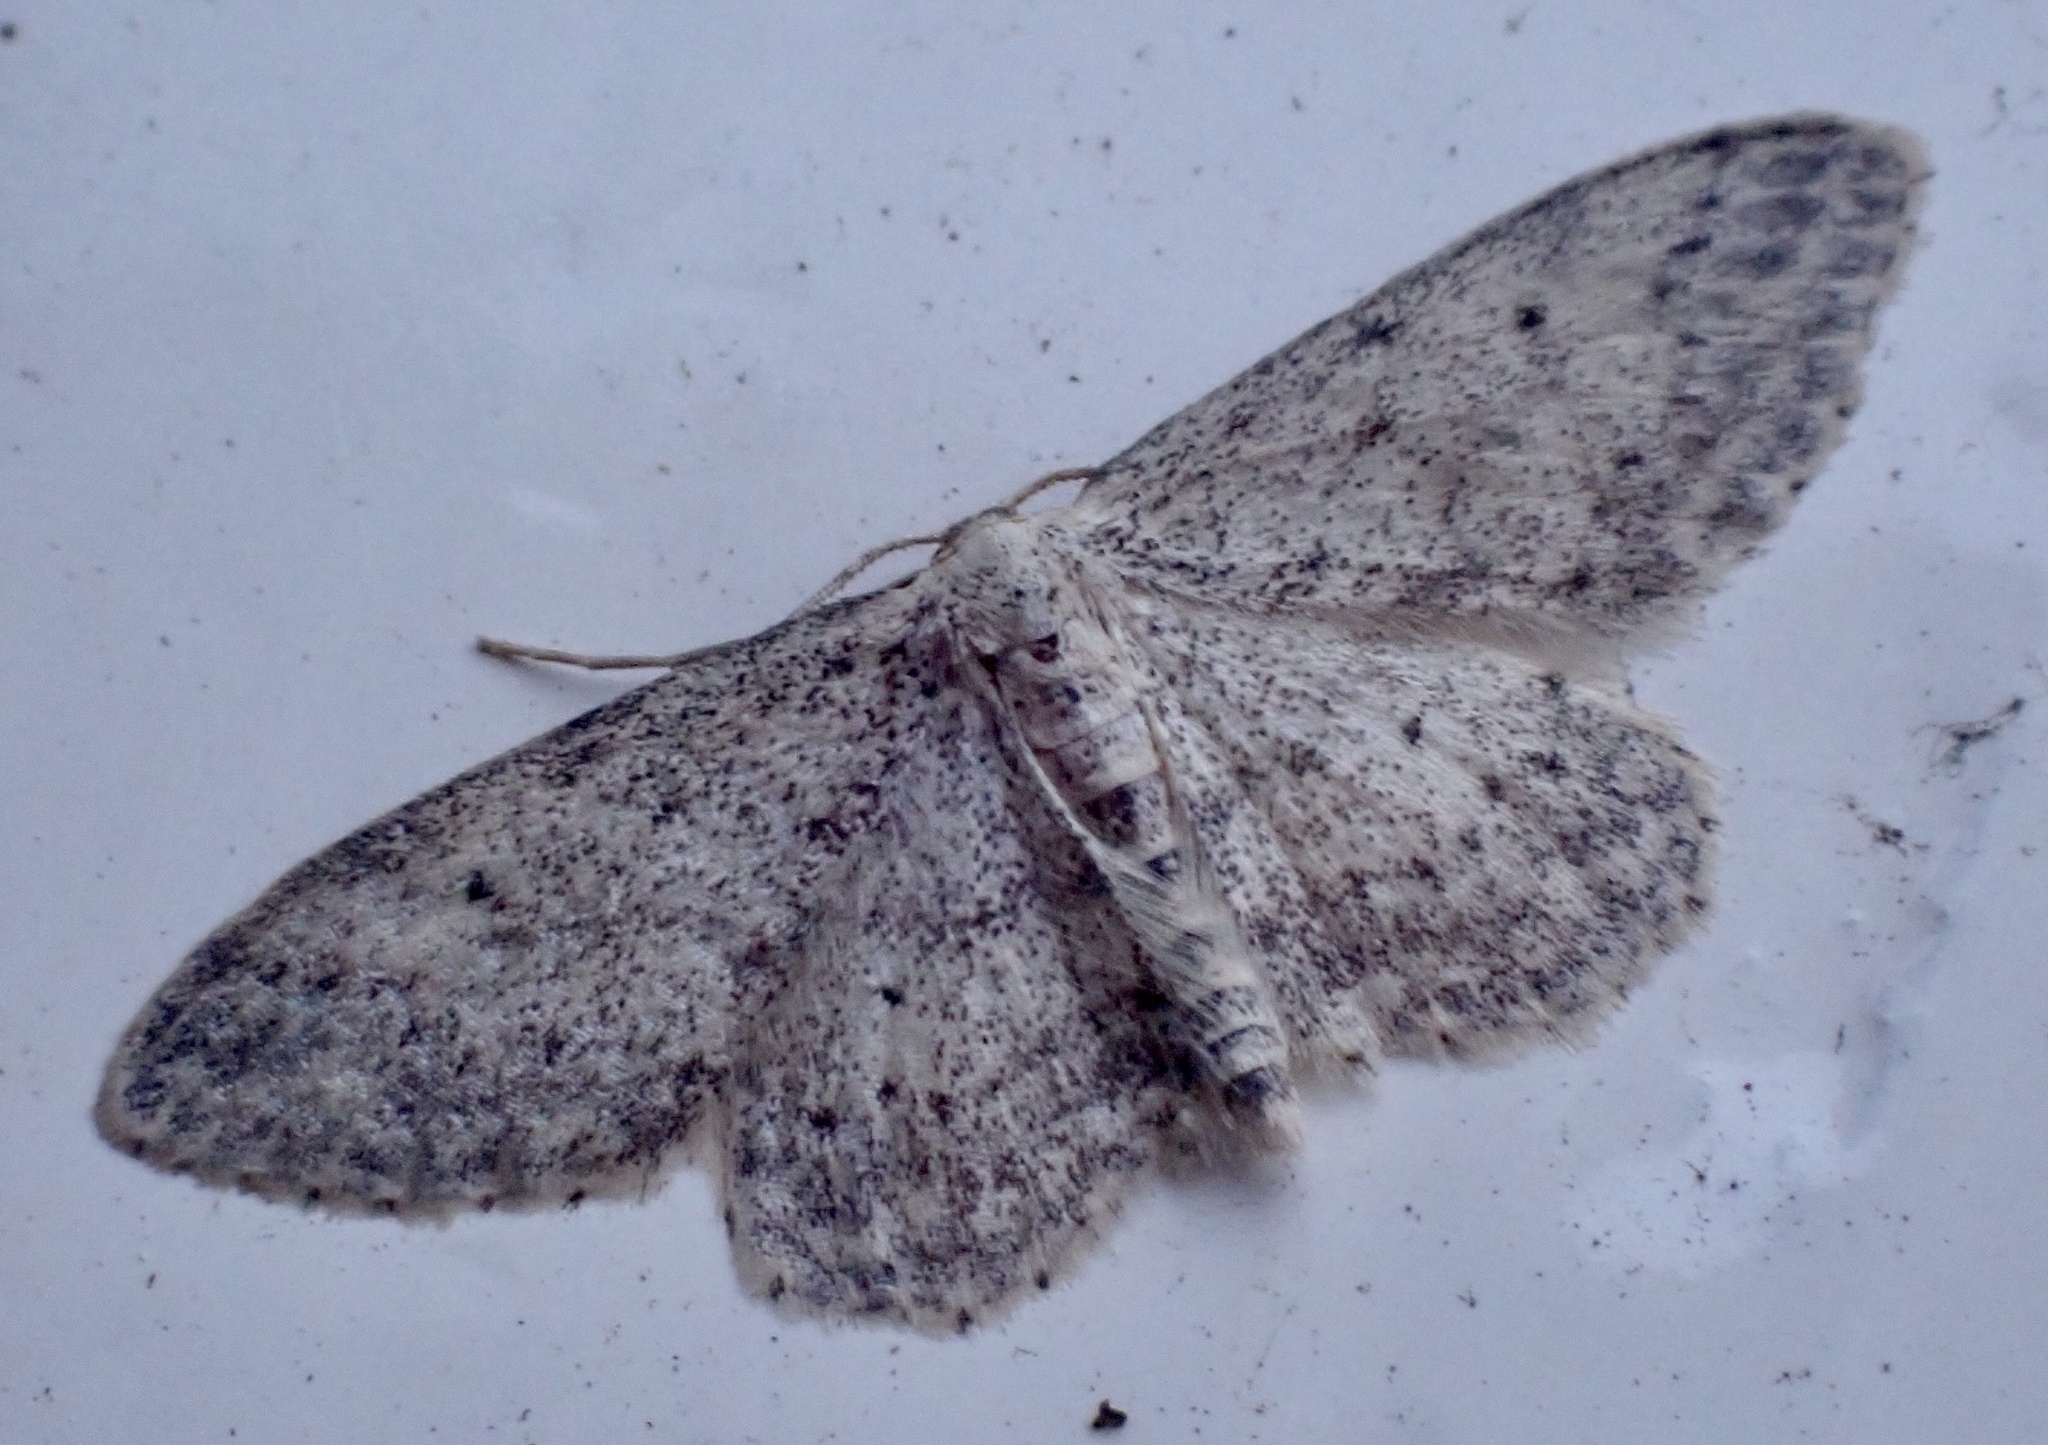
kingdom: Animalia
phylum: Arthropoda
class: Insecta
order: Lepidoptera
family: Geometridae
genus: Idaea
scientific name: Idaea seriata
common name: Small dusty wave
